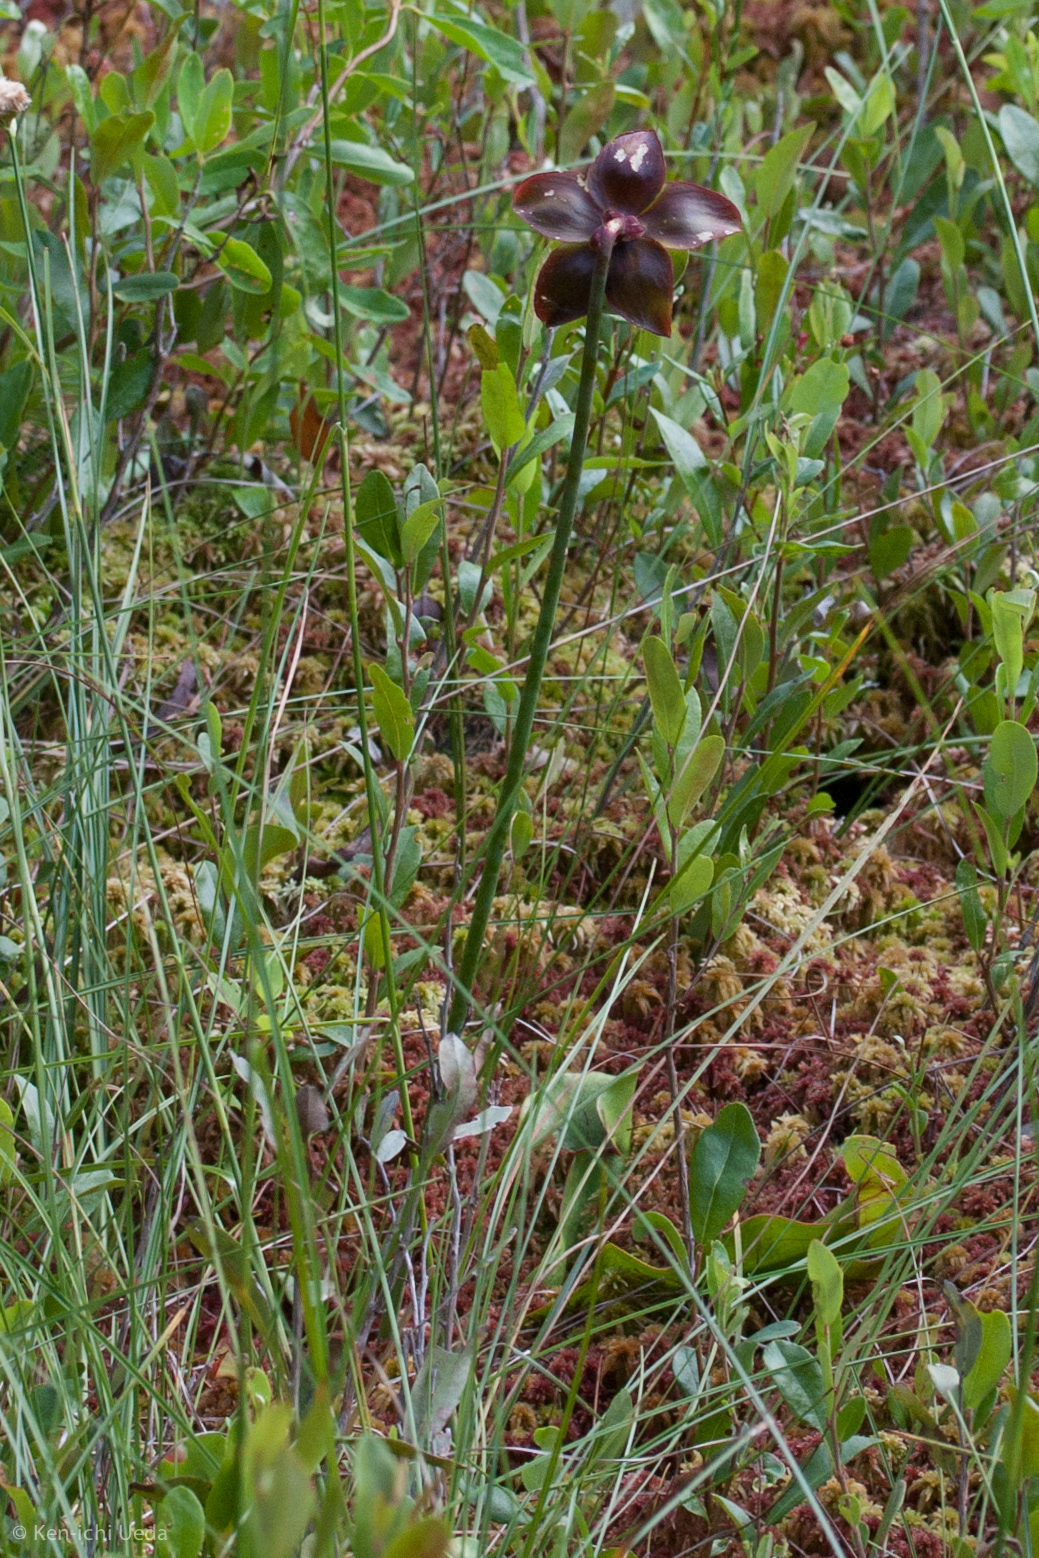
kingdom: Plantae
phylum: Tracheophyta
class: Magnoliopsida
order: Ericales
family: Sarraceniaceae
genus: Sarracenia
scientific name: Sarracenia purpurea
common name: Pitcherplant
